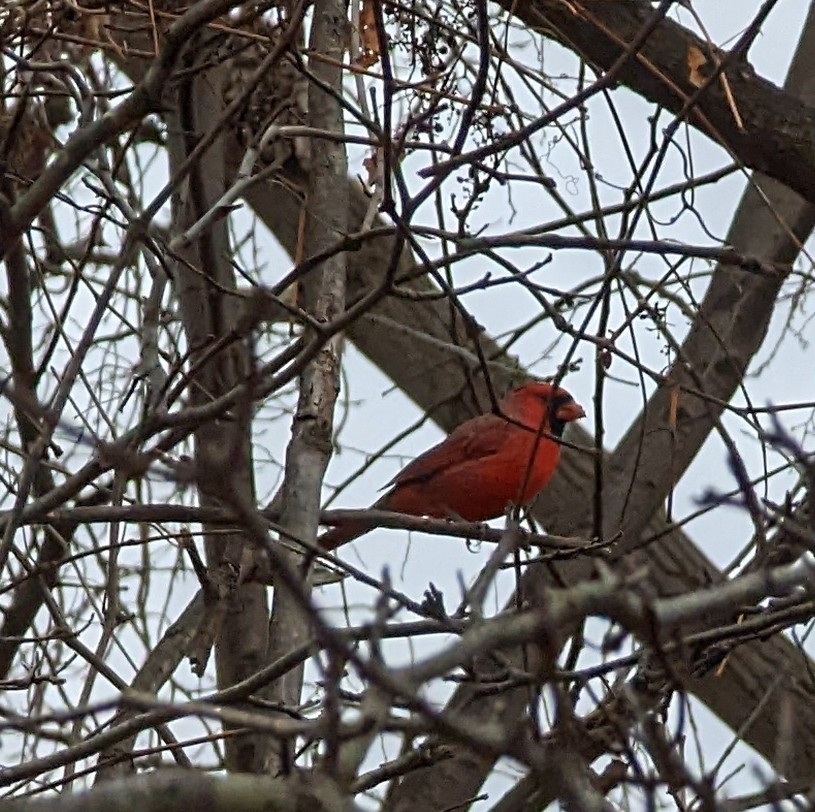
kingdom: Animalia
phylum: Chordata
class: Aves
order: Passeriformes
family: Cardinalidae
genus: Cardinalis
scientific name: Cardinalis cardinalis
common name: Northern cardinal
